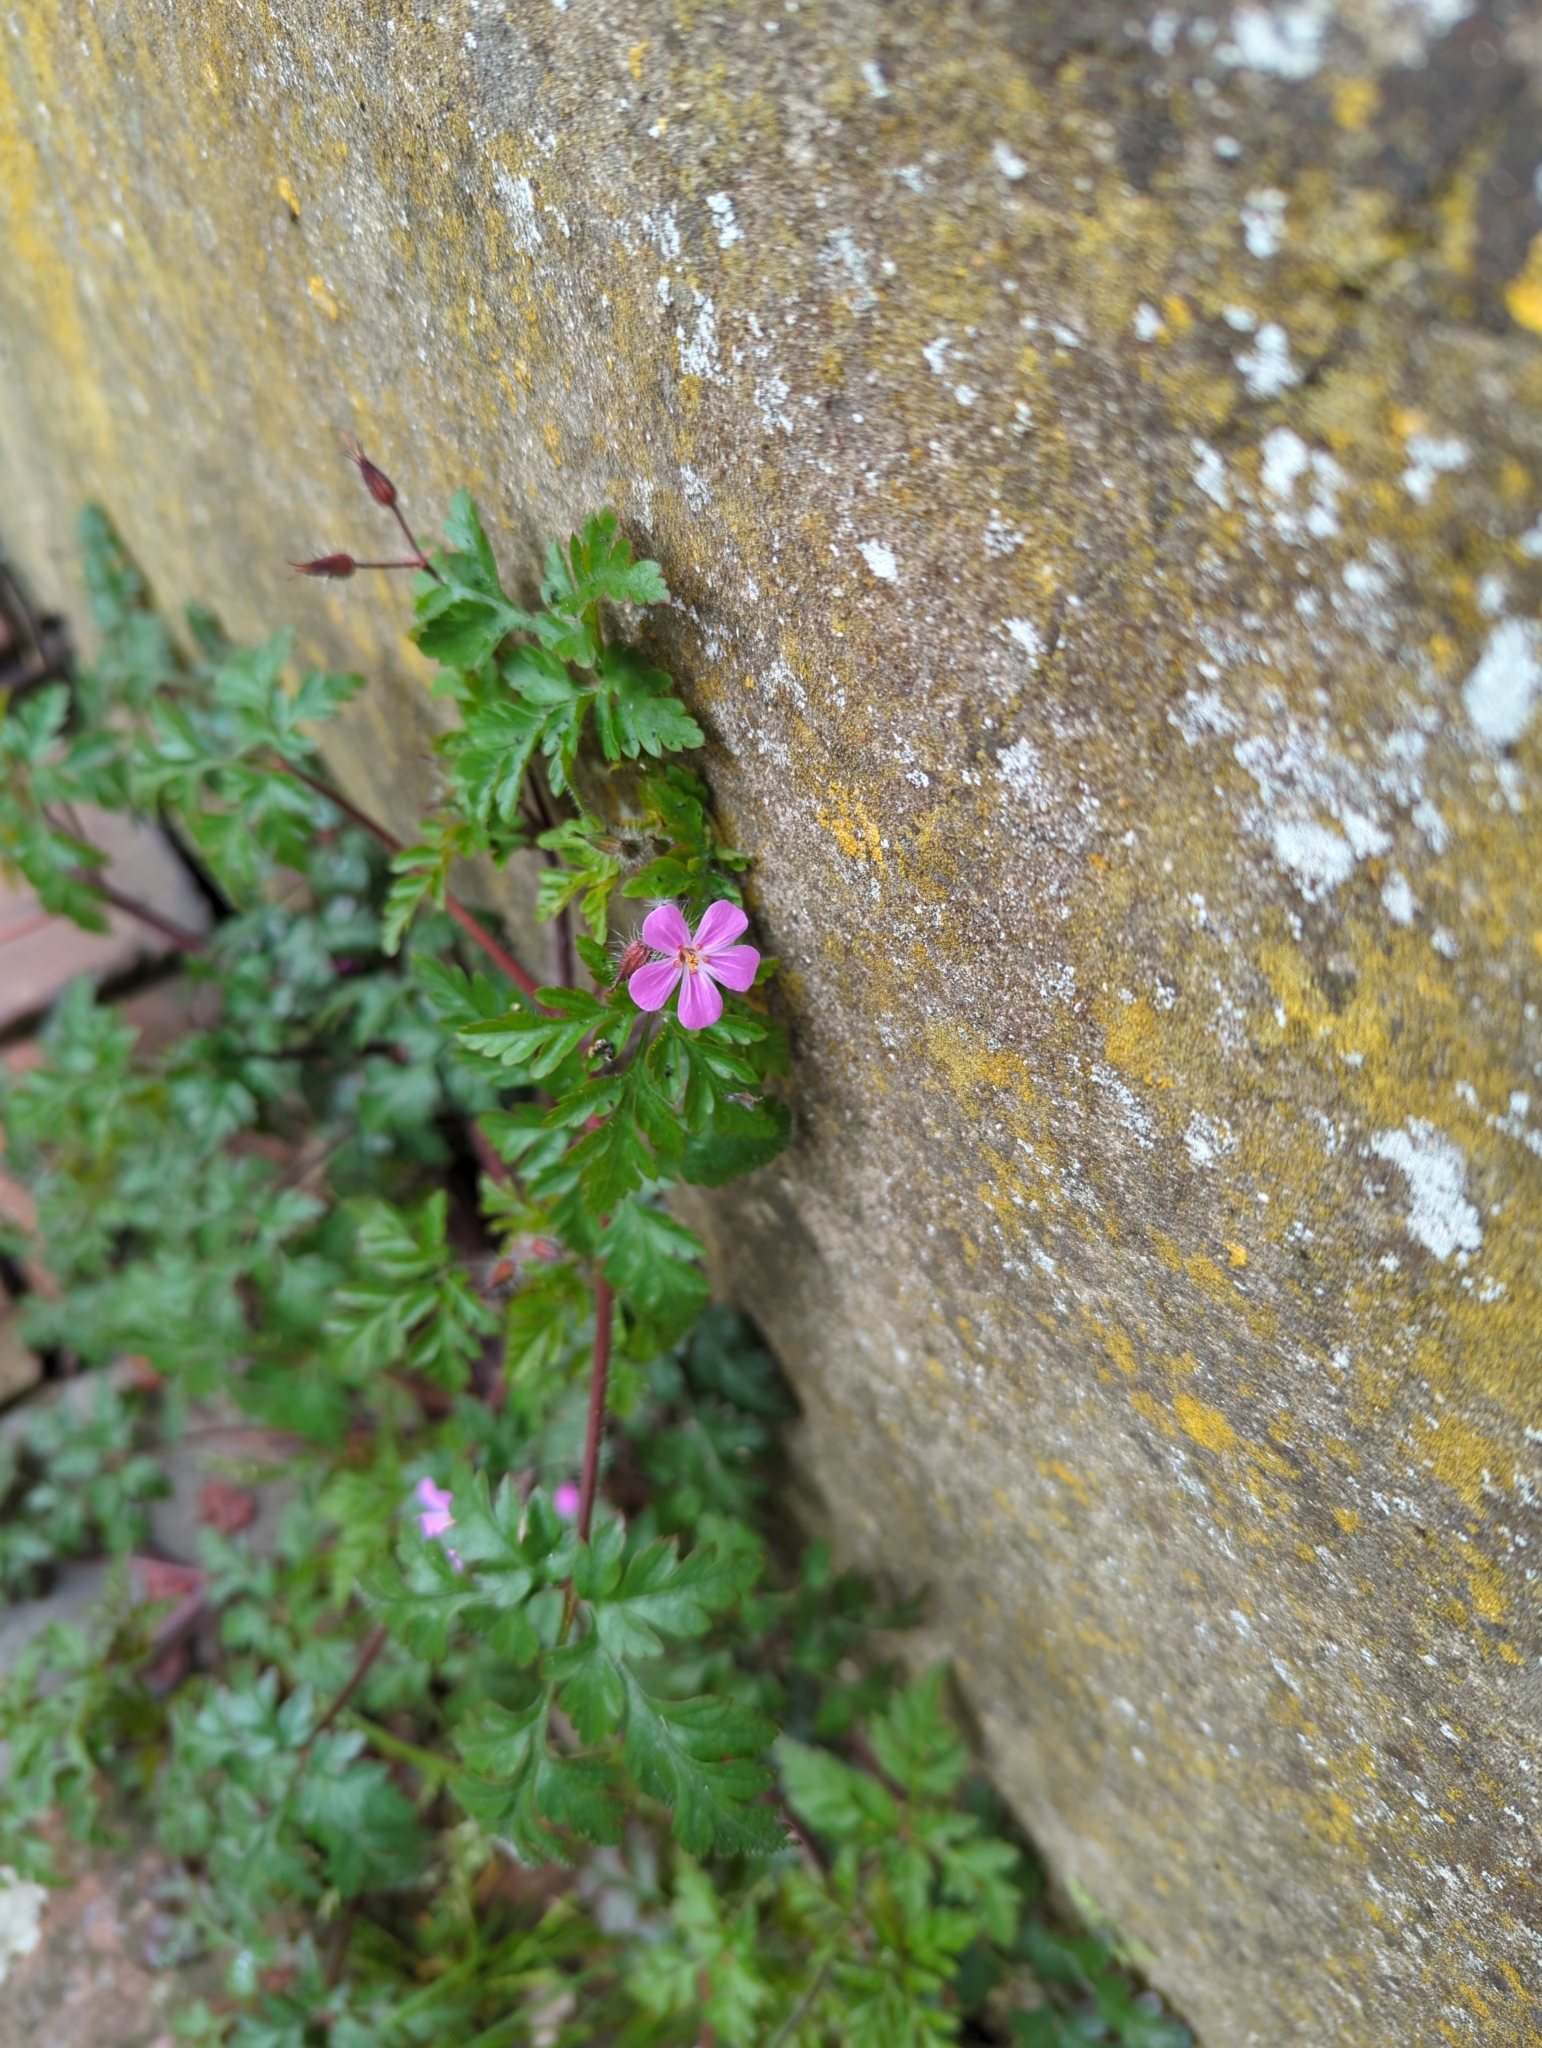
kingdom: Plantae
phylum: Tracheophyta
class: Magnoliopsida
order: Geraniales
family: Geraniaceae
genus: Geranium
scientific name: Geranium robertianum
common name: Herb-robert
